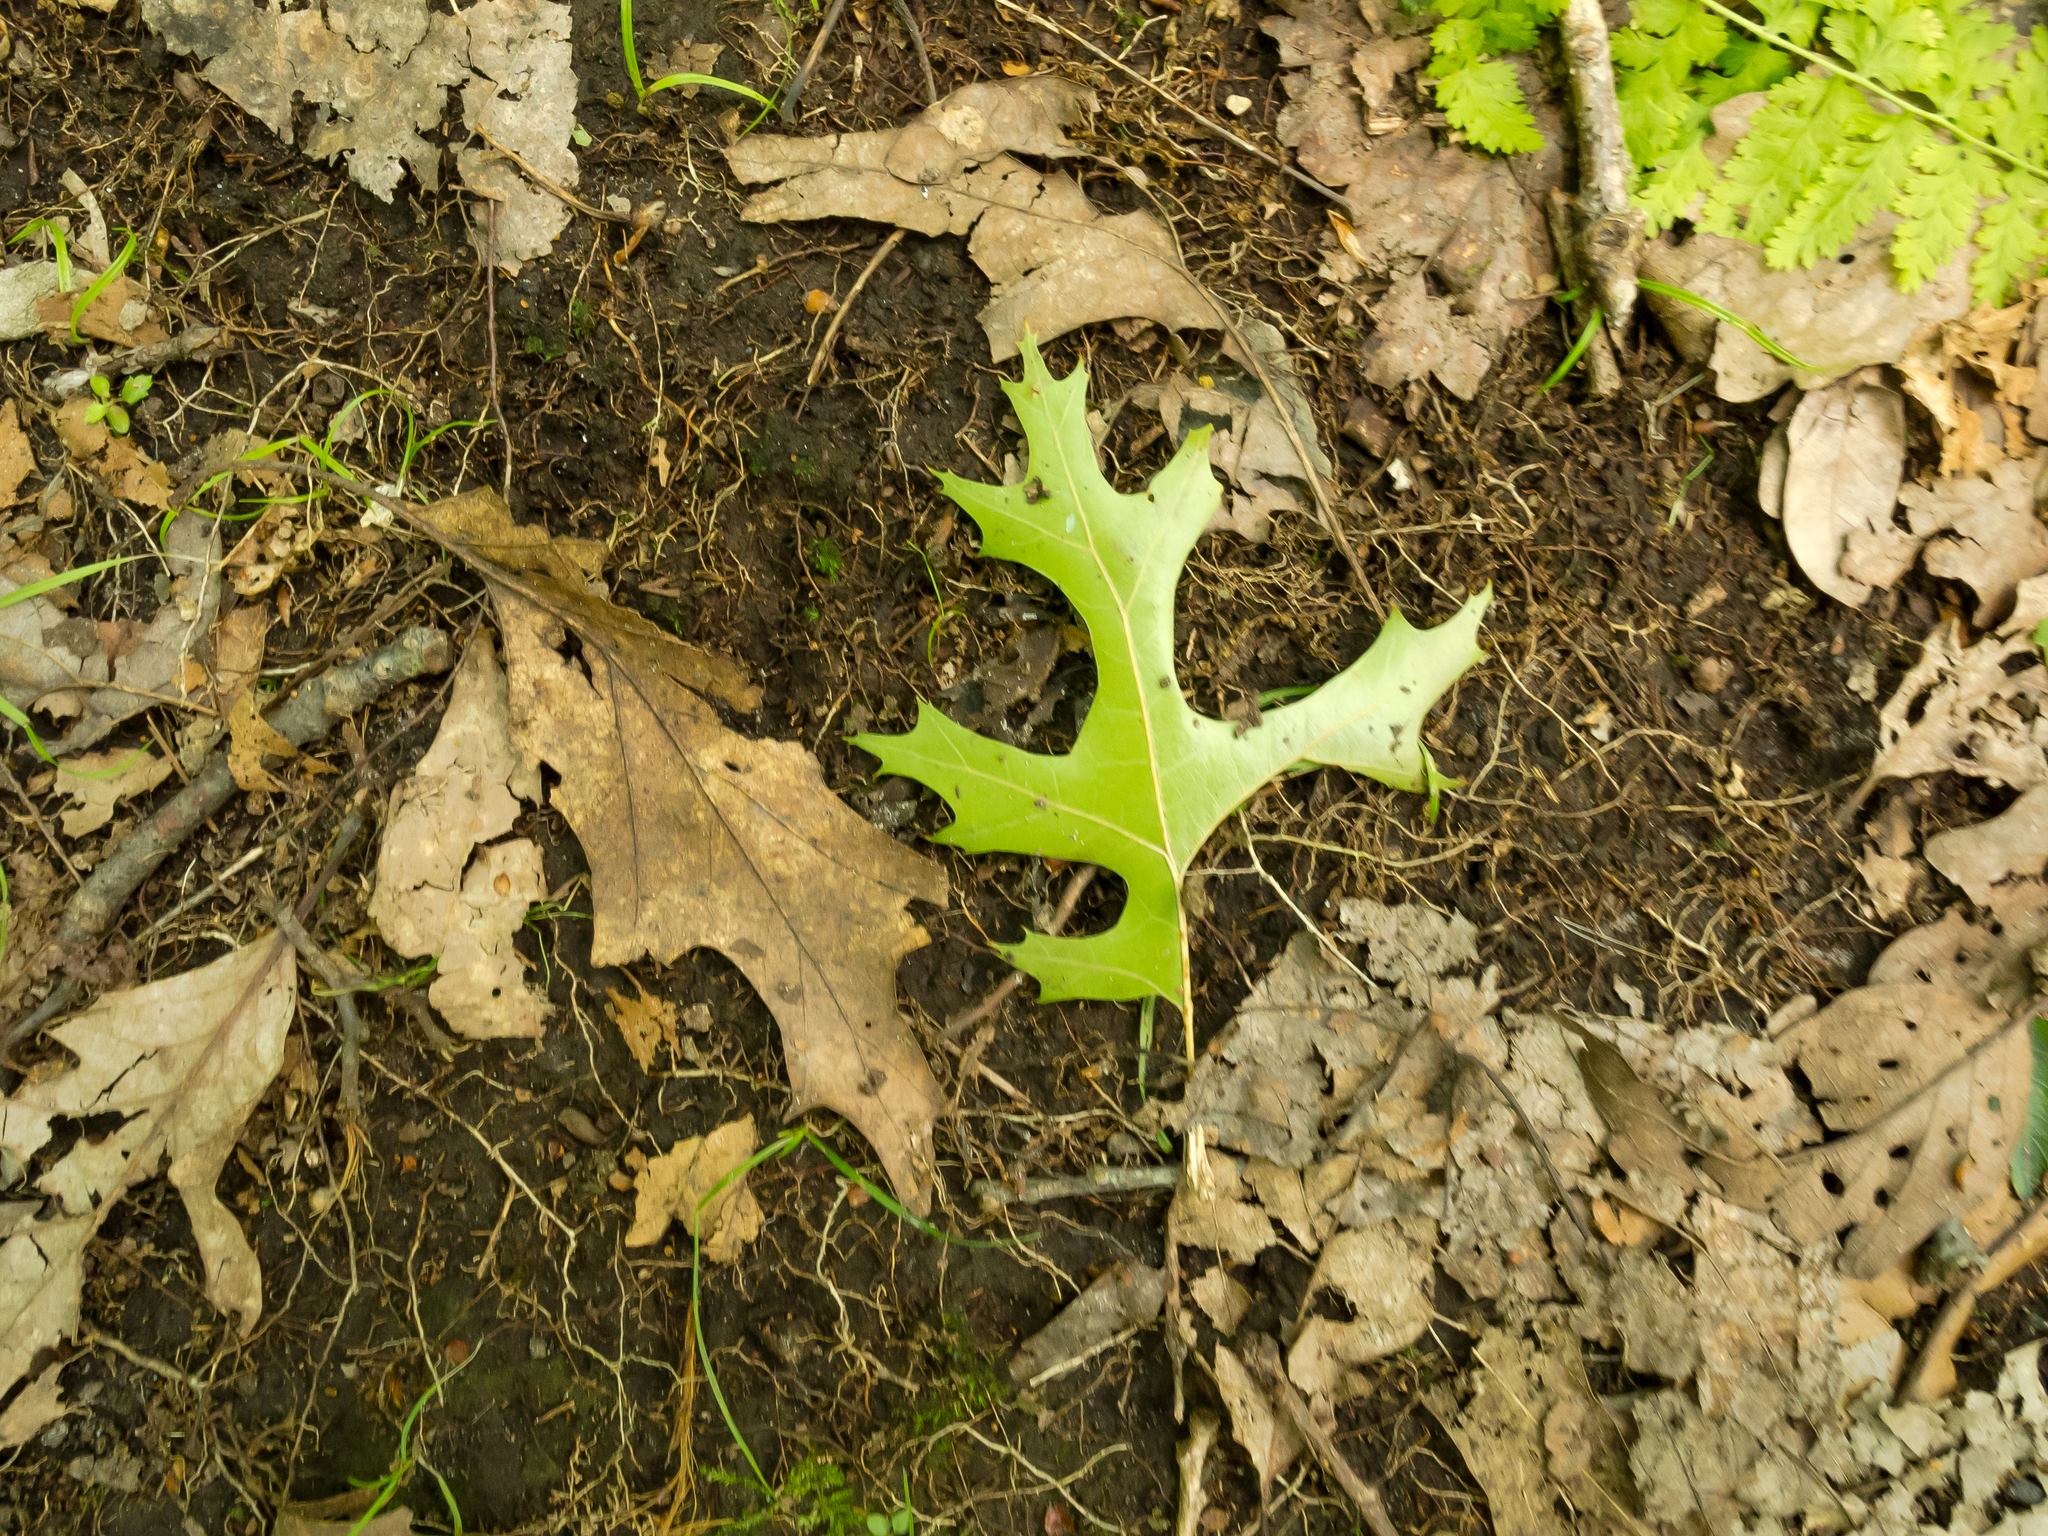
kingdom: Plantae
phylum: Tracheophyta
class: Magnoliopsida
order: Fagales
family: Fagaceae
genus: Quercus
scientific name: Quercus coccinea
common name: Scarlet oak
